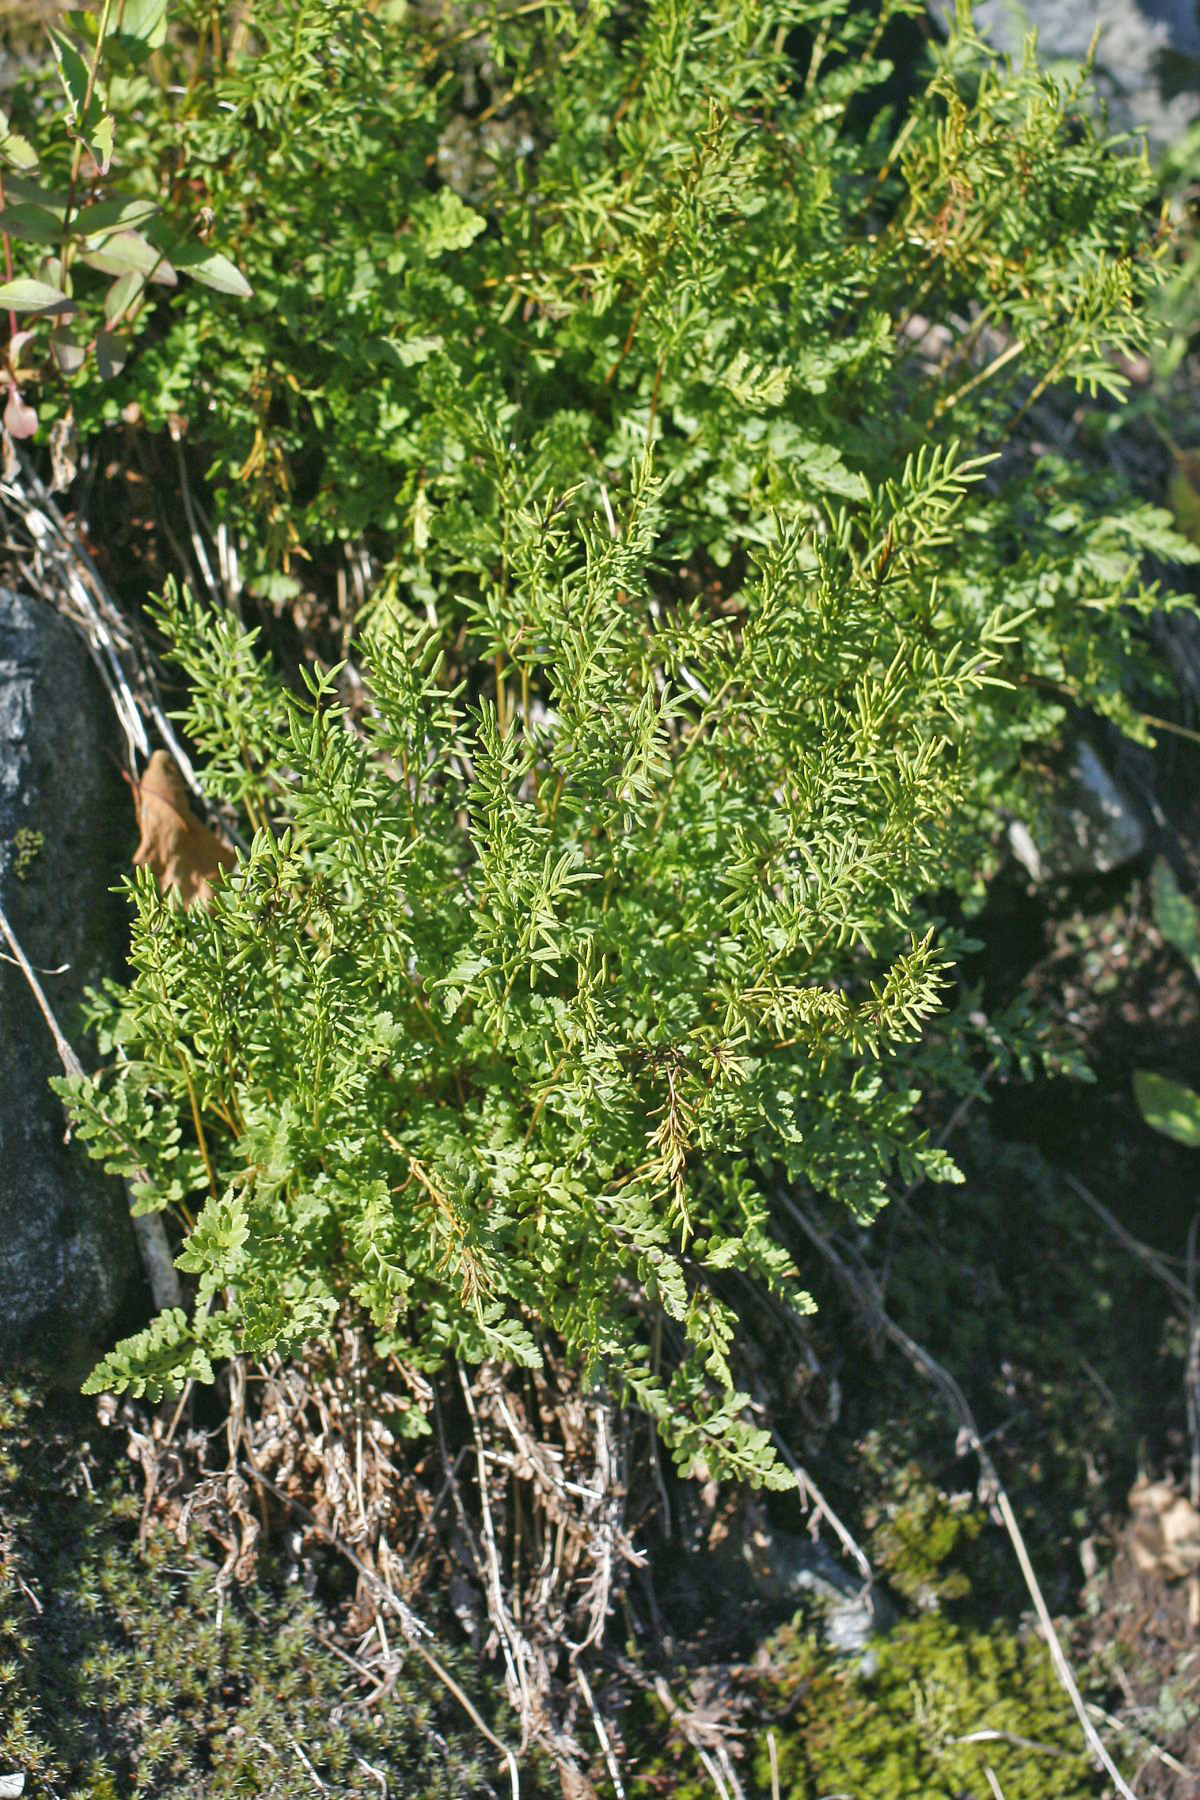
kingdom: Plantae
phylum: Tracheophyta
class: Polypodiopsida
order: Polypodiales
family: Pteridaceae
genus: Cryptogramma
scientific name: Cryptogramma acrostichoides
